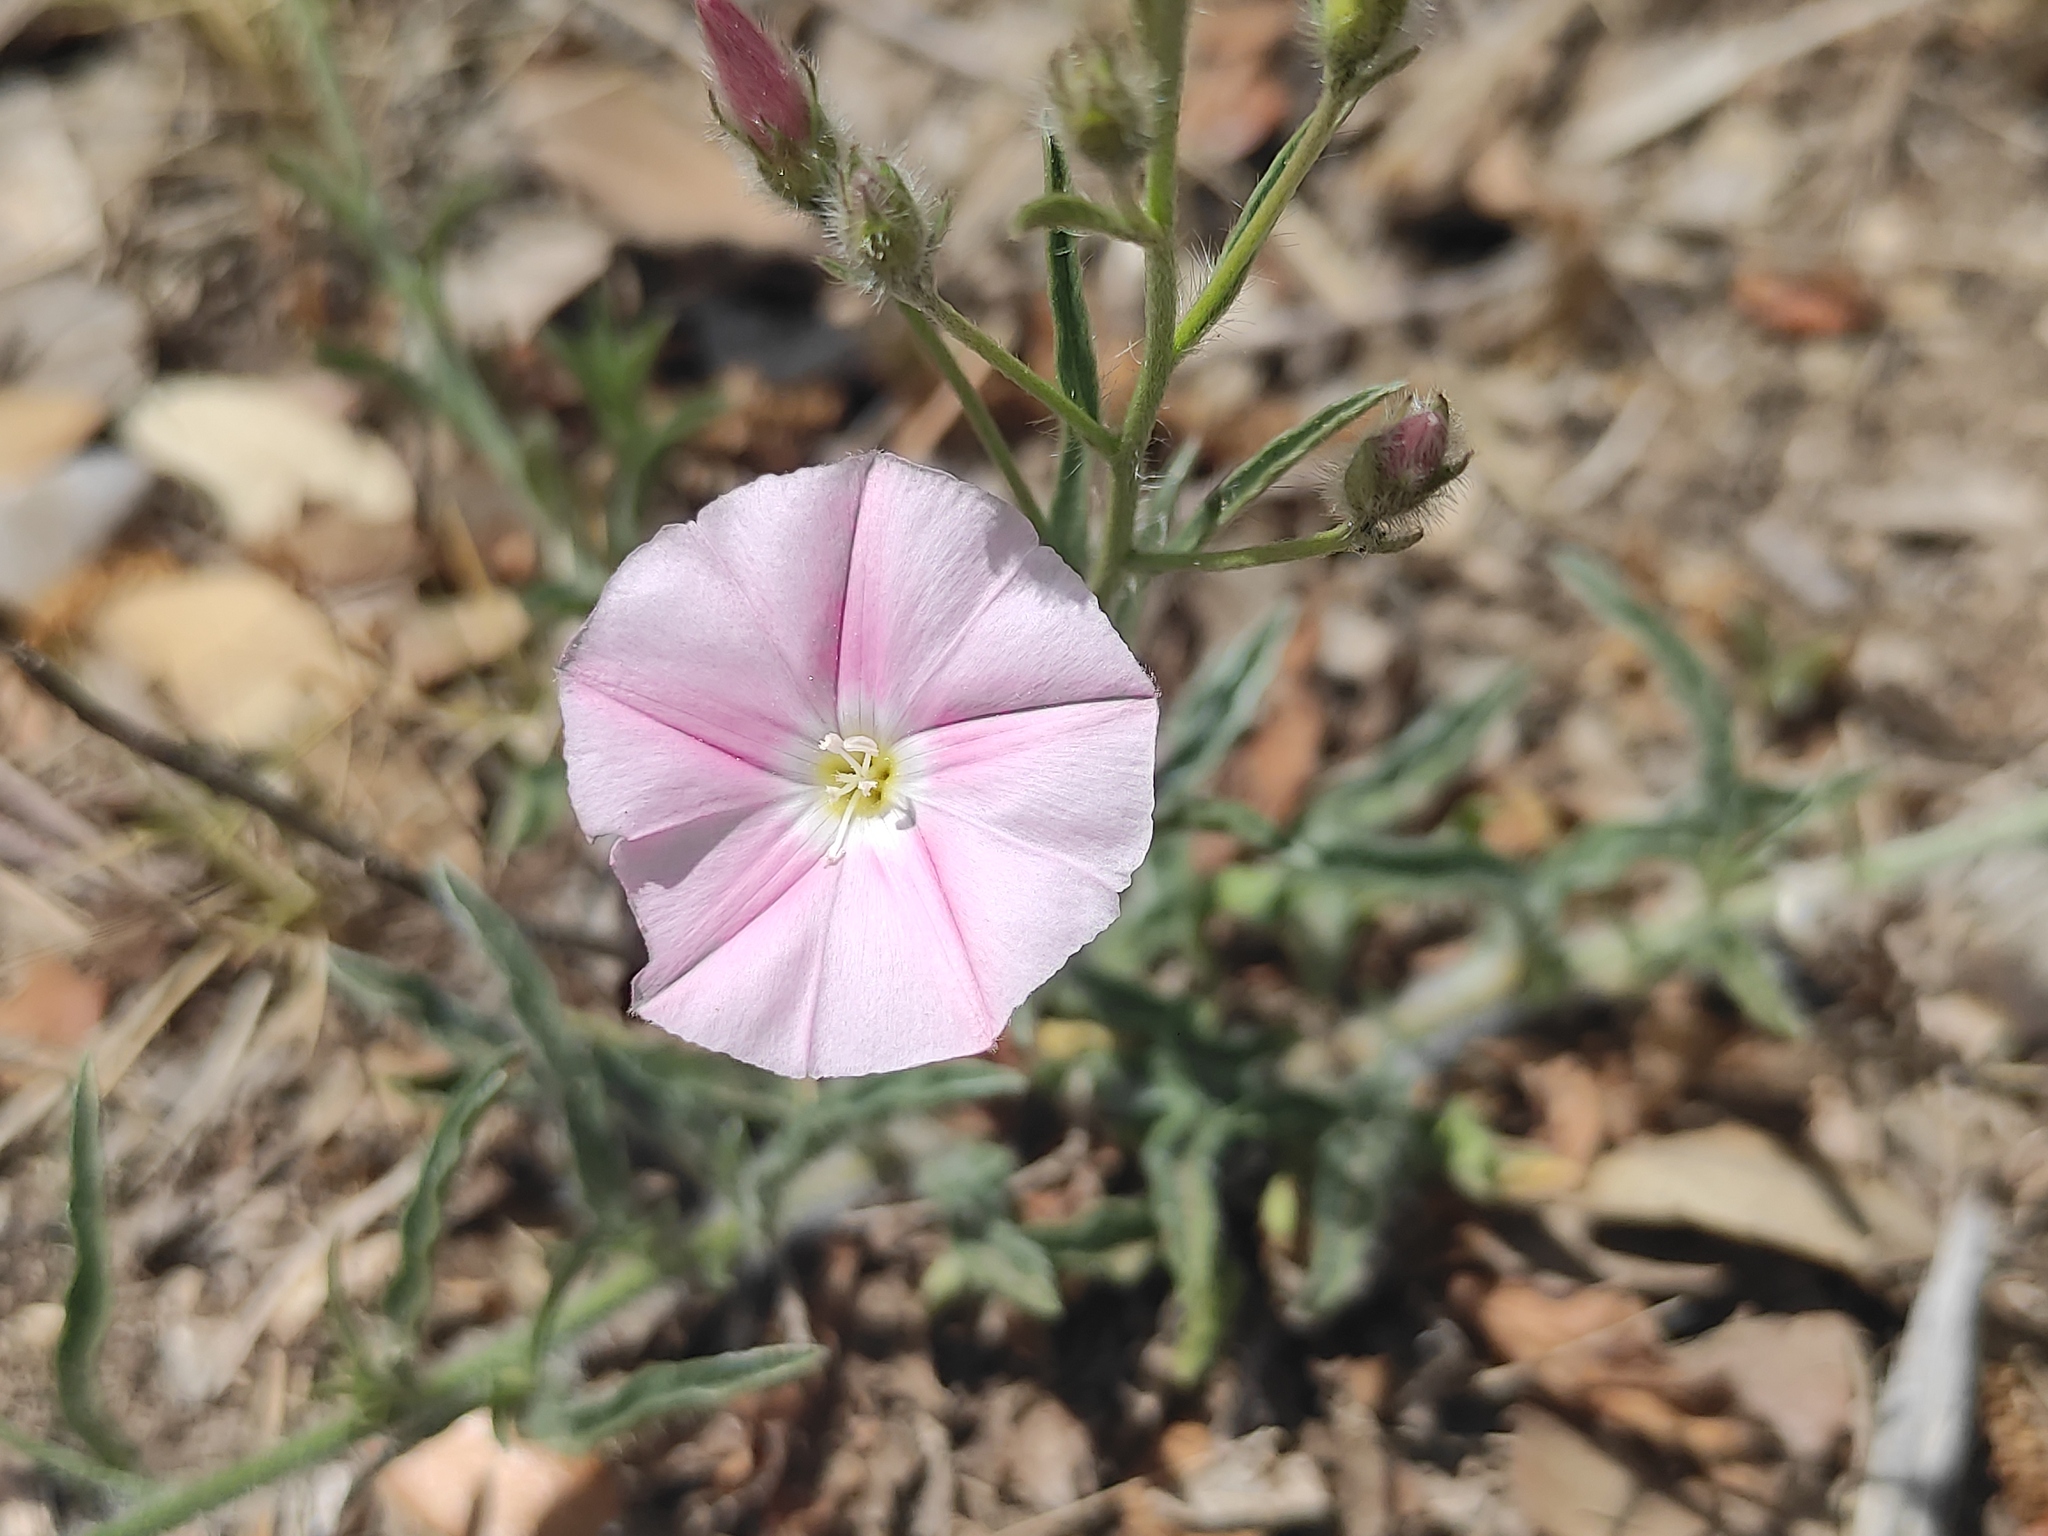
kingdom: Plantae
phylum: Tracheophyta
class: Magnoliopsida
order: Solanales
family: Convolvulaceae
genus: Convolvulus
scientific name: Convolvulus cantabrica
